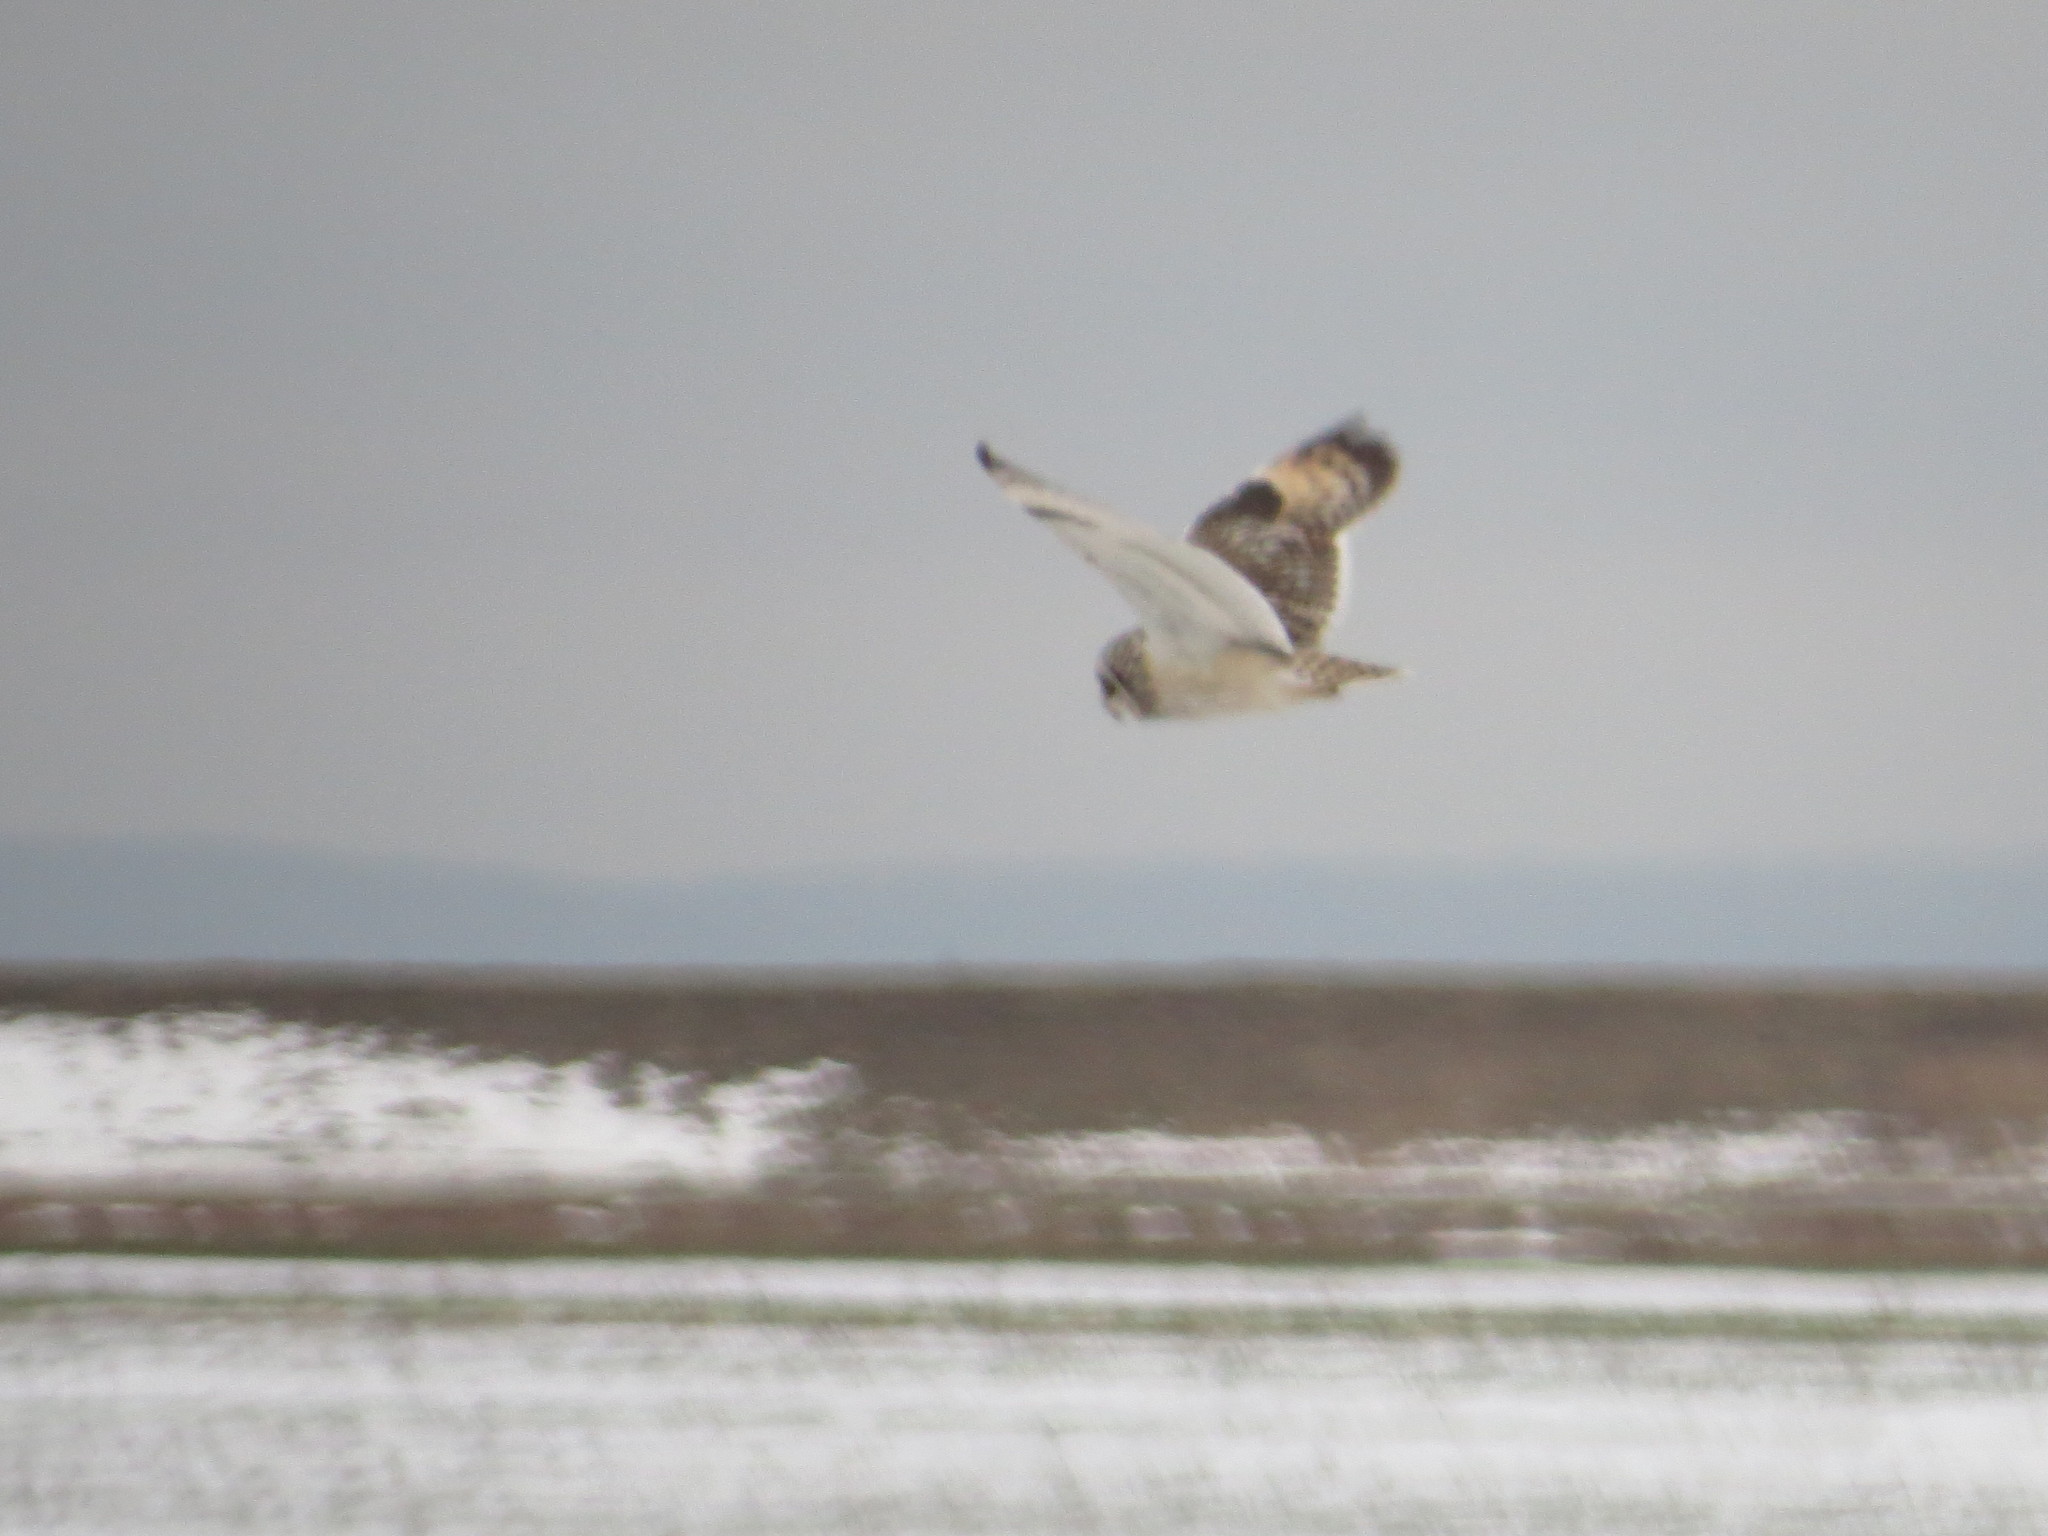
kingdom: Animalia
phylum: Chordata
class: Aves
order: Strigiformes
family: Strigidae
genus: Asio
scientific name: Asio flammeus
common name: Short-eared owl
